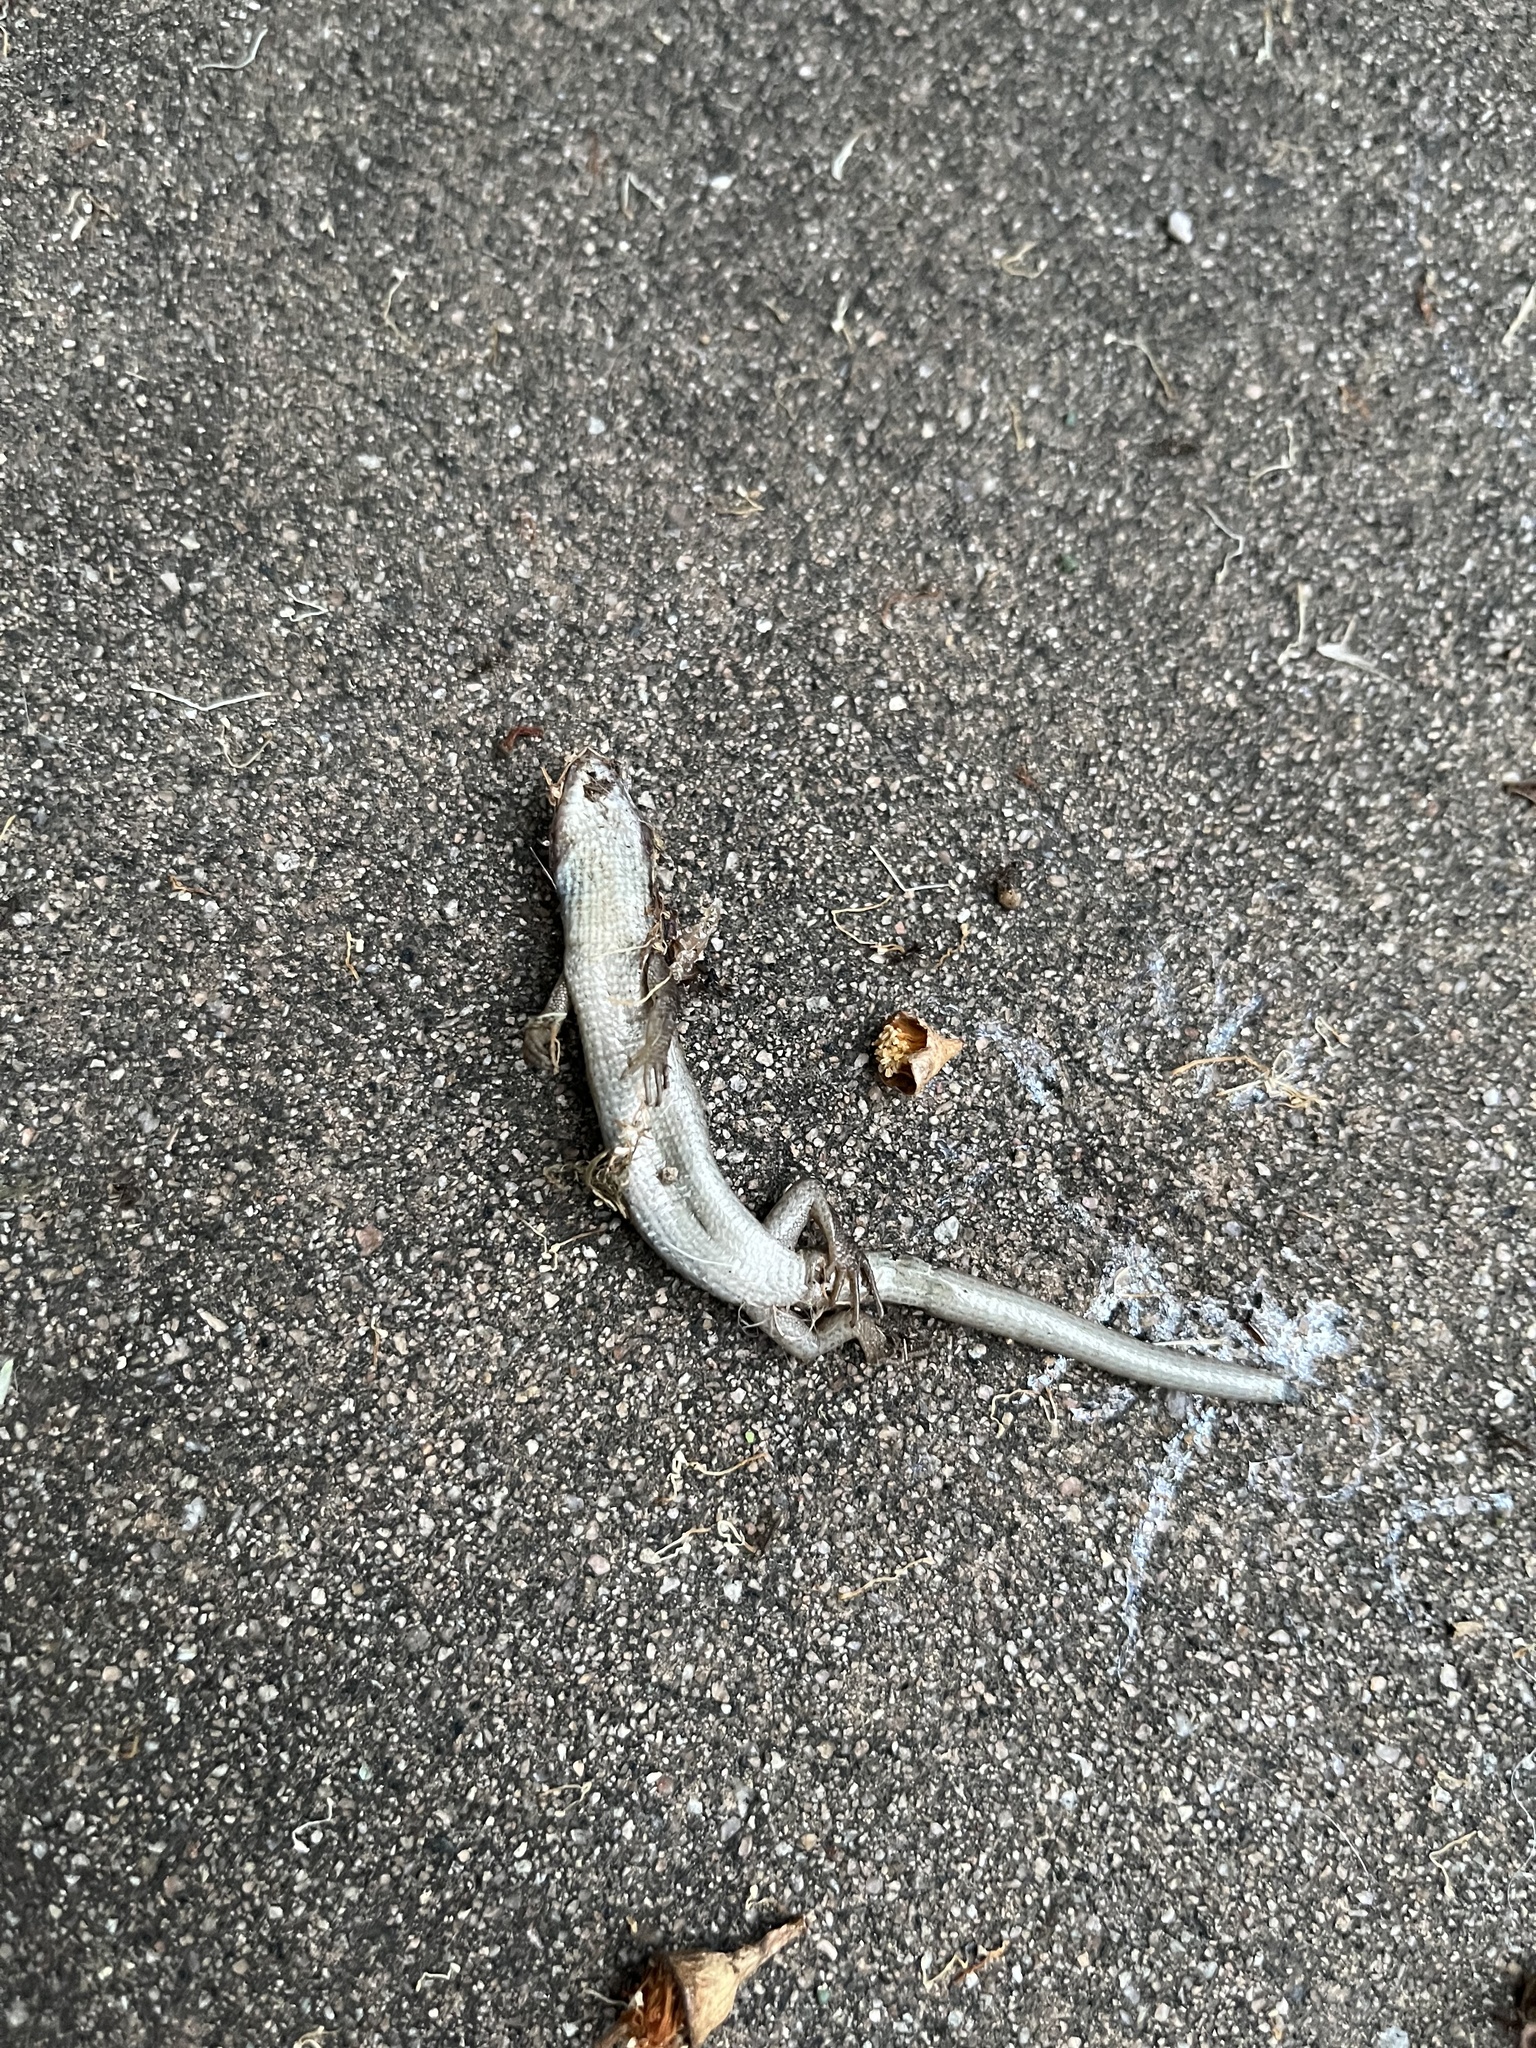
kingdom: Animalia
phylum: Chordata
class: Squamata
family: Anguidae
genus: Elgaria
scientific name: Elgaria multicarinata
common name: Southern alligator lizard
